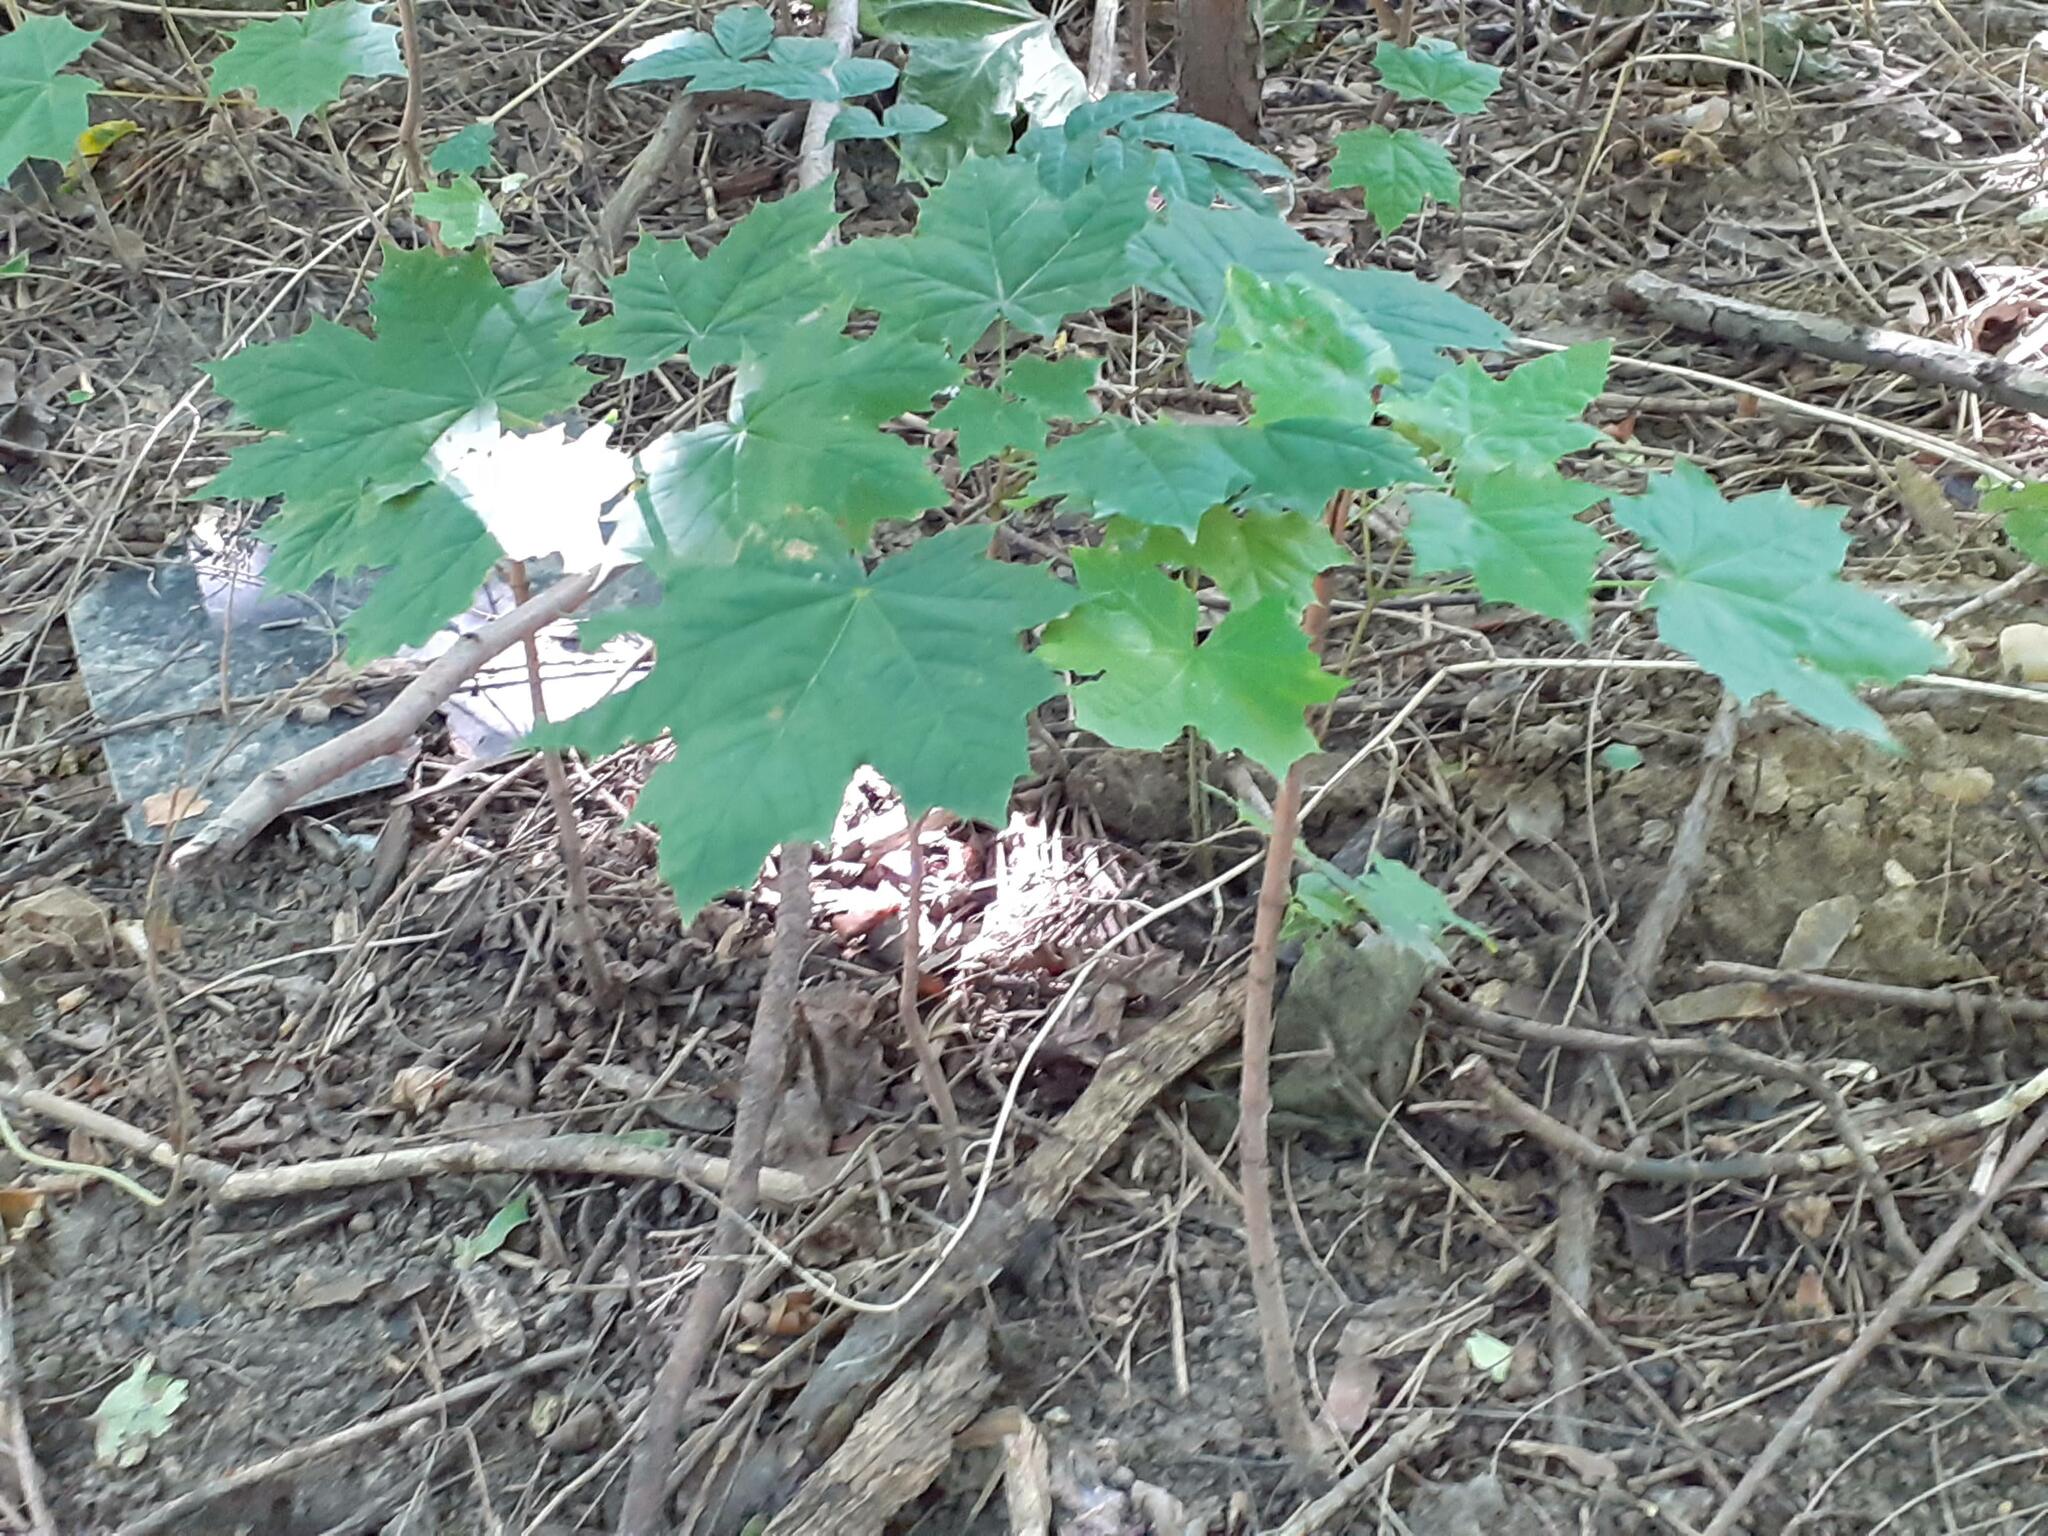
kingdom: Plantae
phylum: Tracheophyta
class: Magnoliopsida
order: Sapindales
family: Sapindaceae
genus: Acer
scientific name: Acer platanoides
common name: Norway maple
